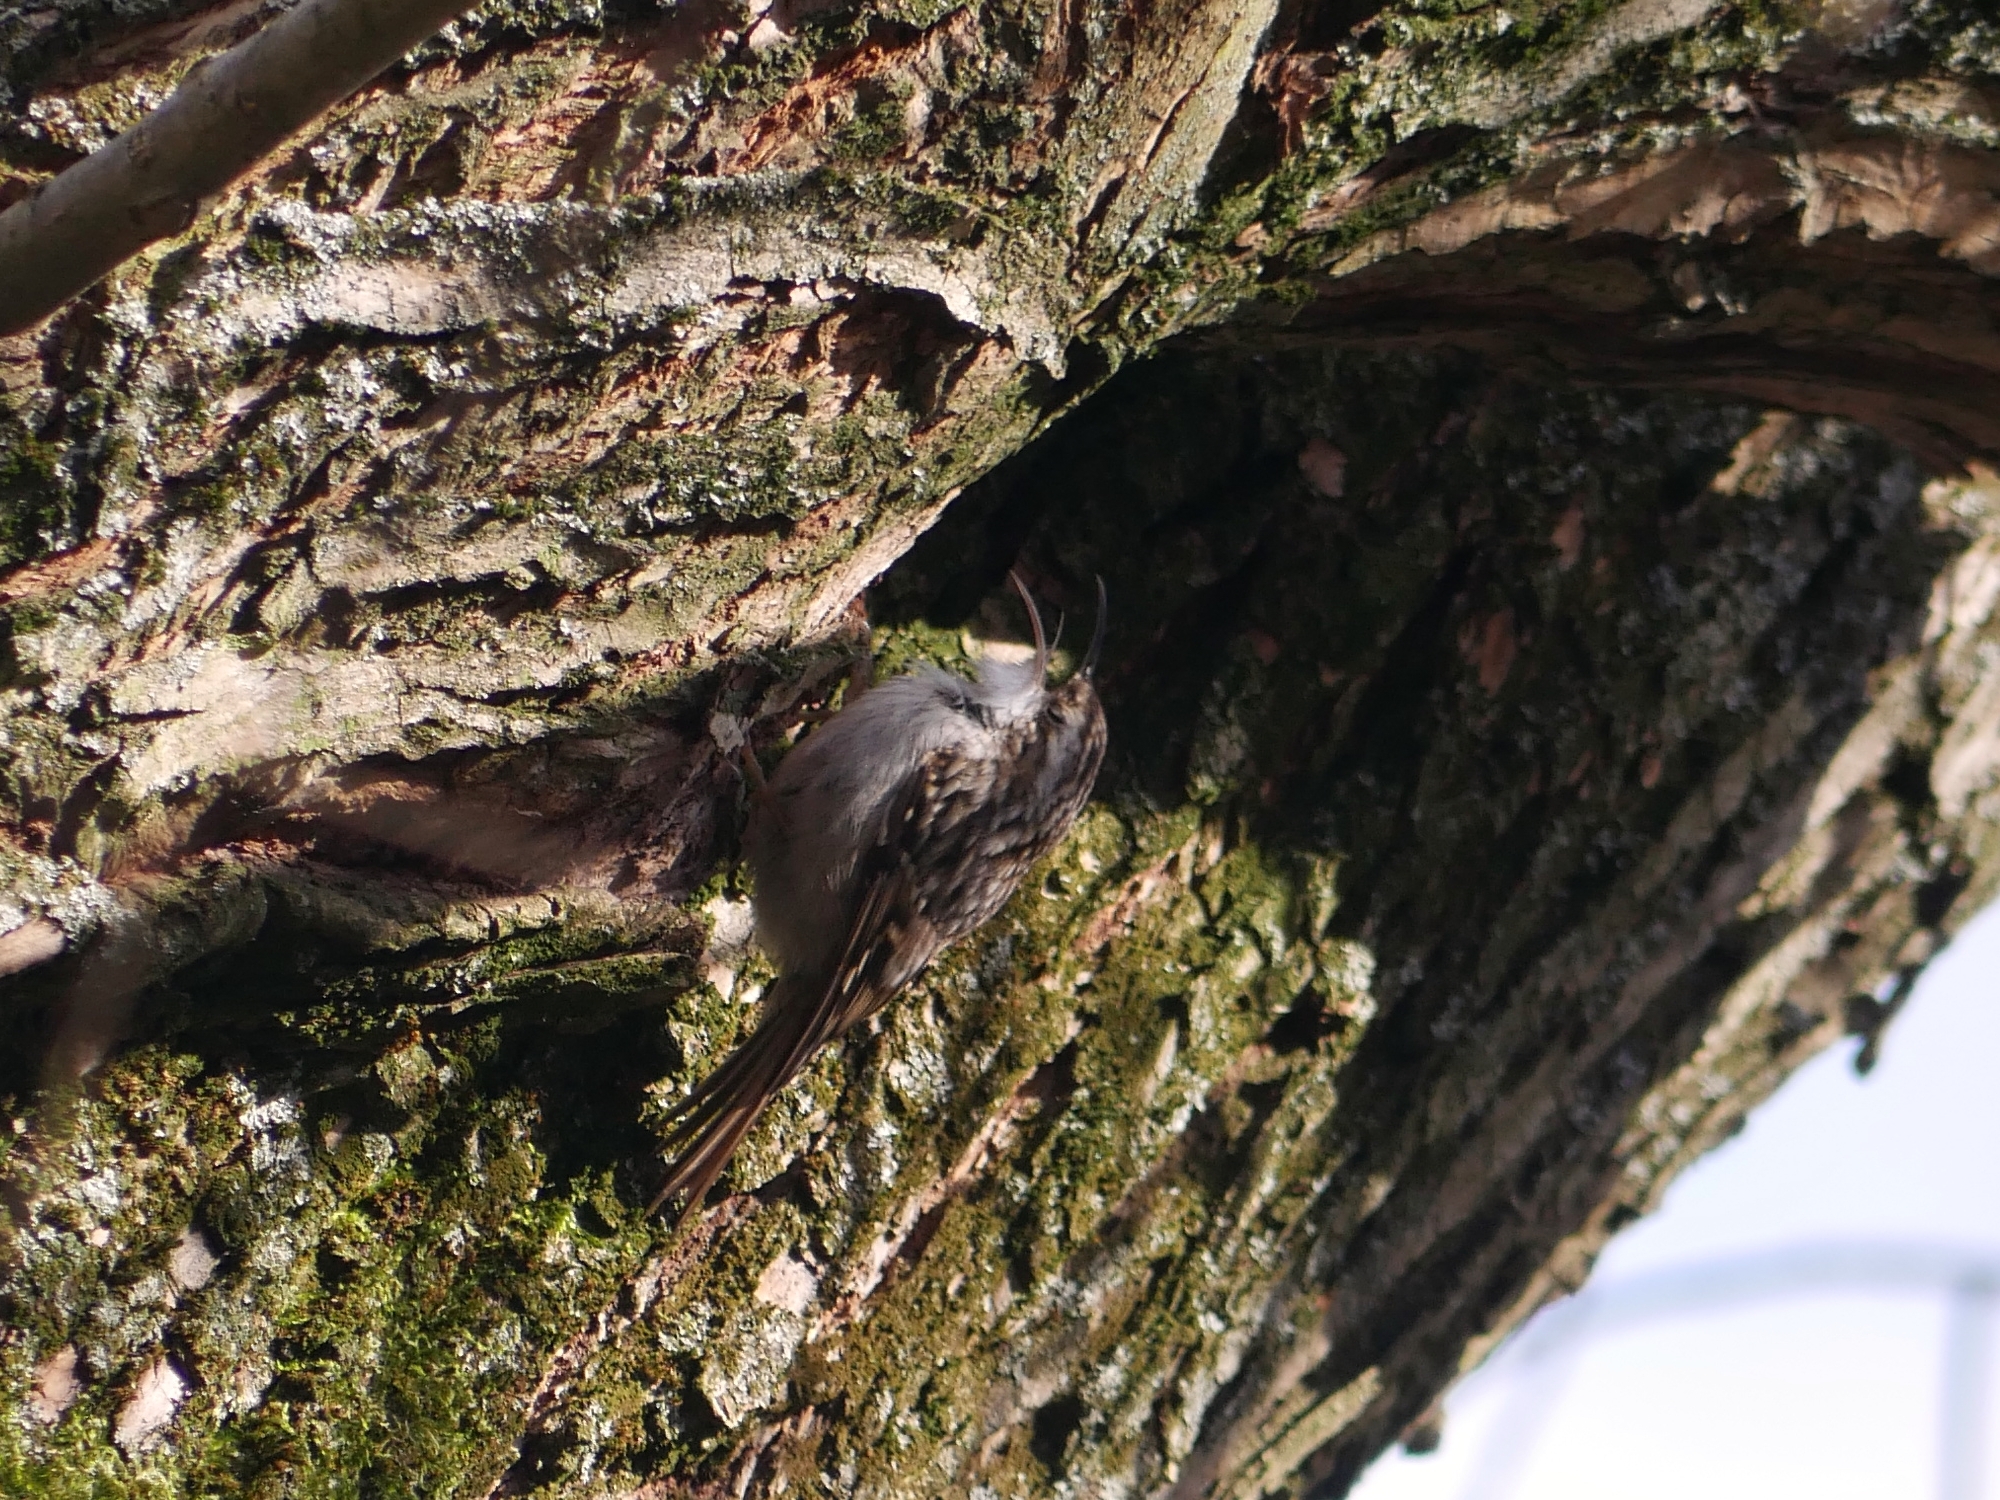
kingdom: Animalia
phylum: Chordata
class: Aves
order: Passeriformes
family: Certhiidae
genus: Certhia
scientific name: Certhia brachydactyla
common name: Short-toed treecreeper
